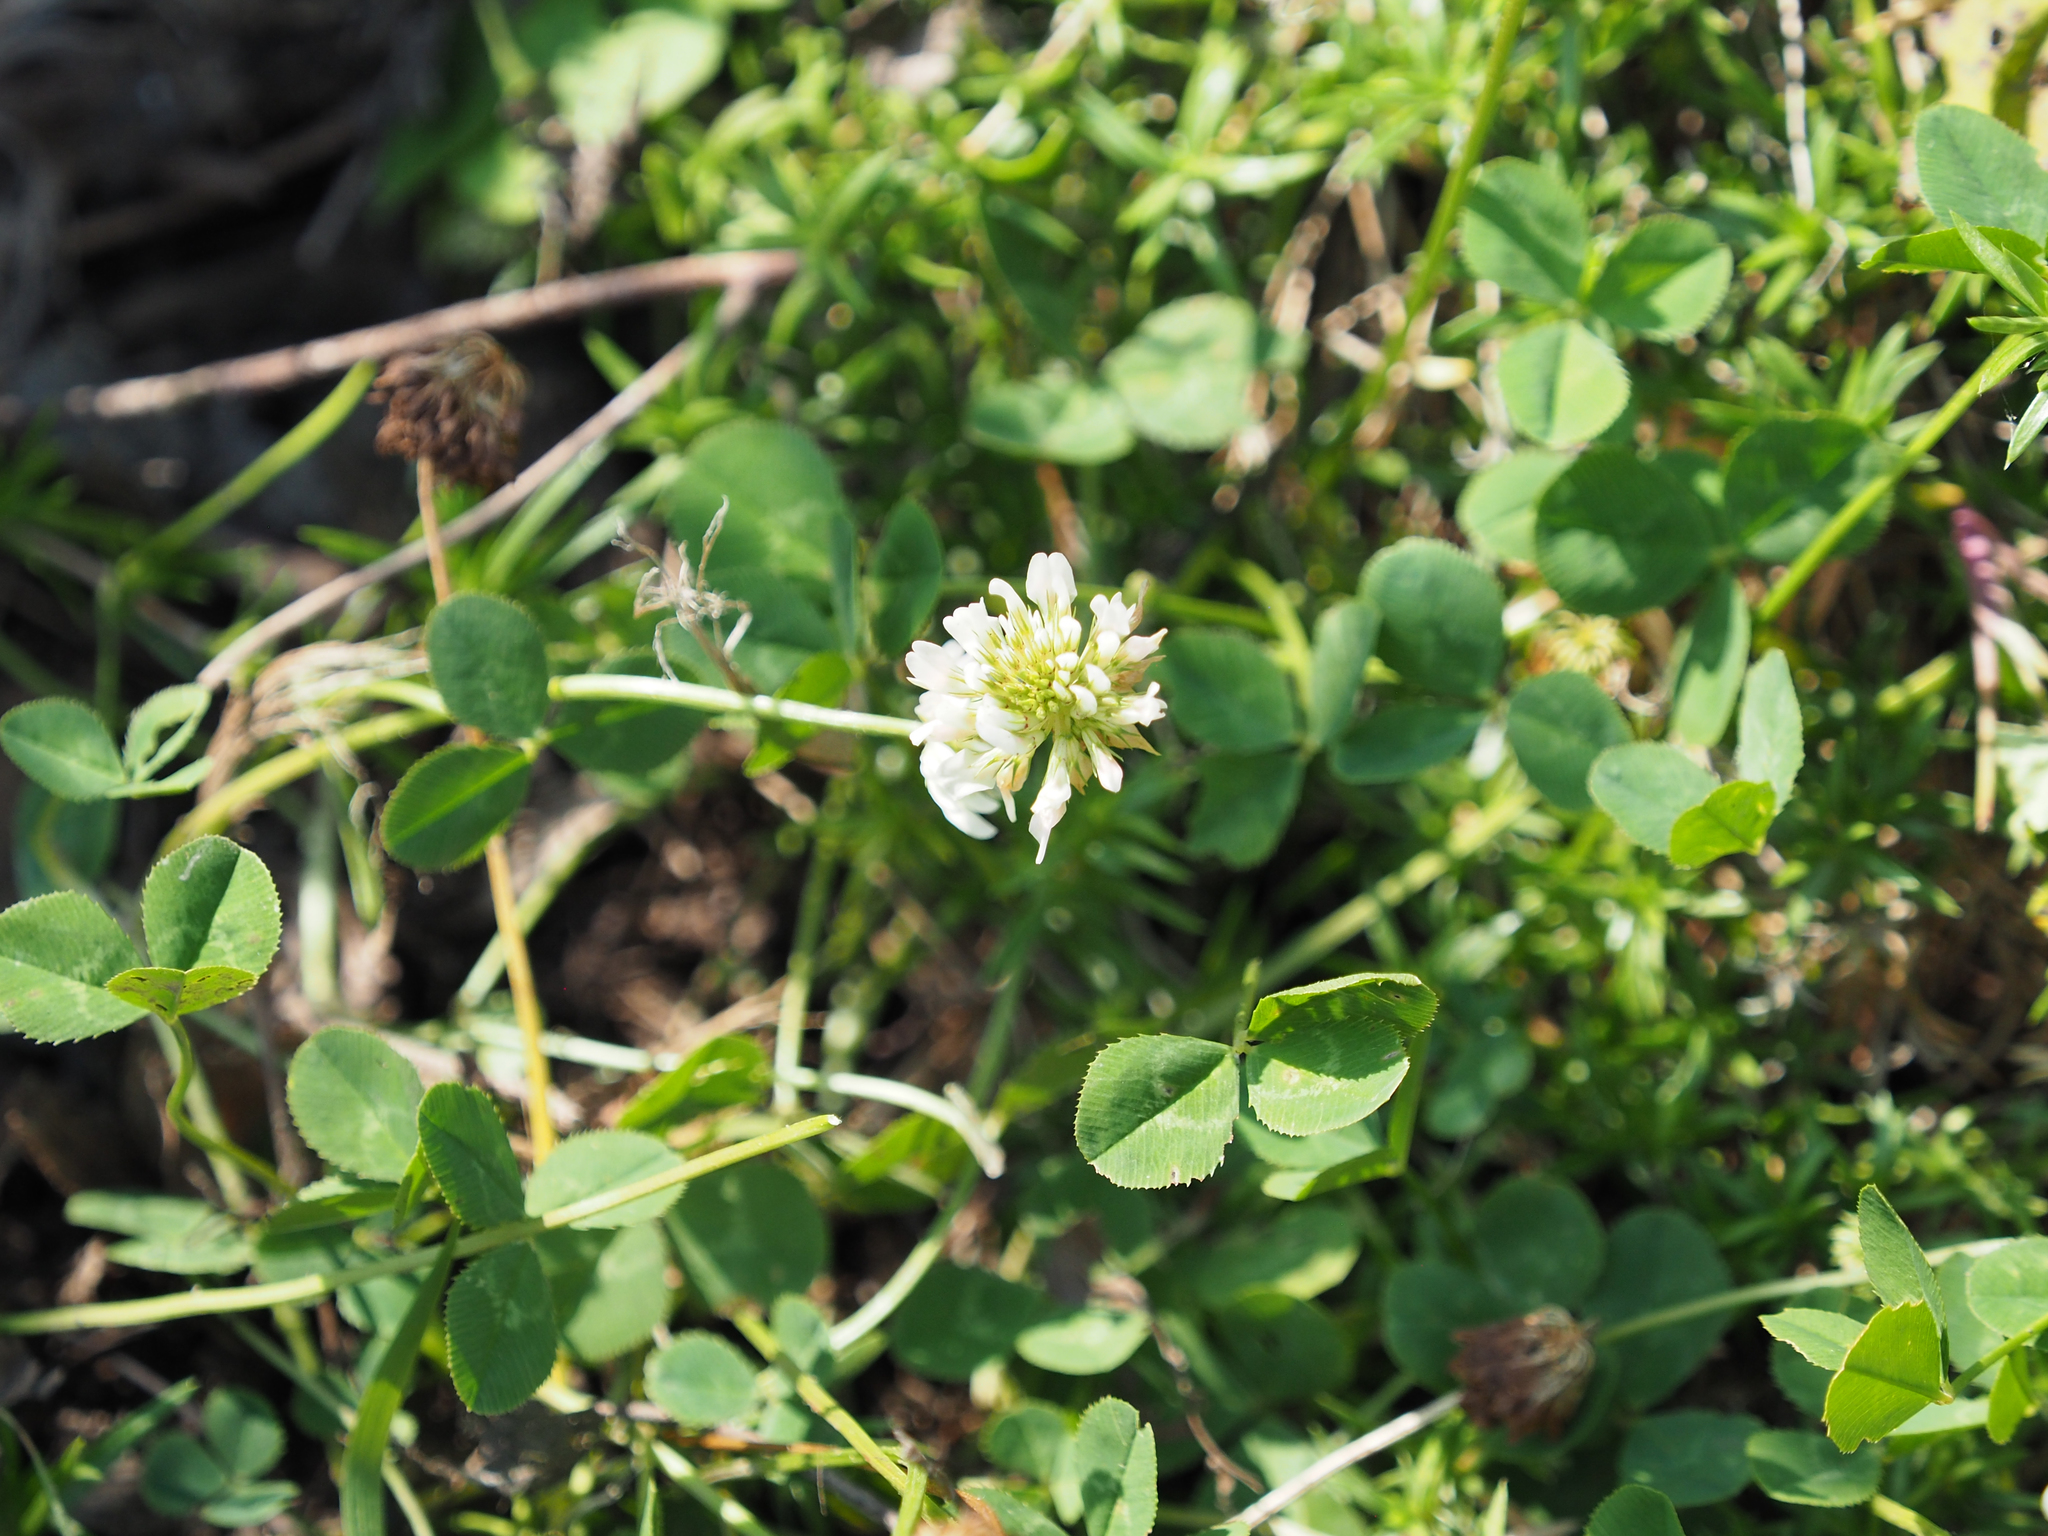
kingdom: Plantae
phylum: Tracheophyta
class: Magnoliopsida
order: Fabales
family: Fabaceae
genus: Trifolium
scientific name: Trifolium repens
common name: White clover
